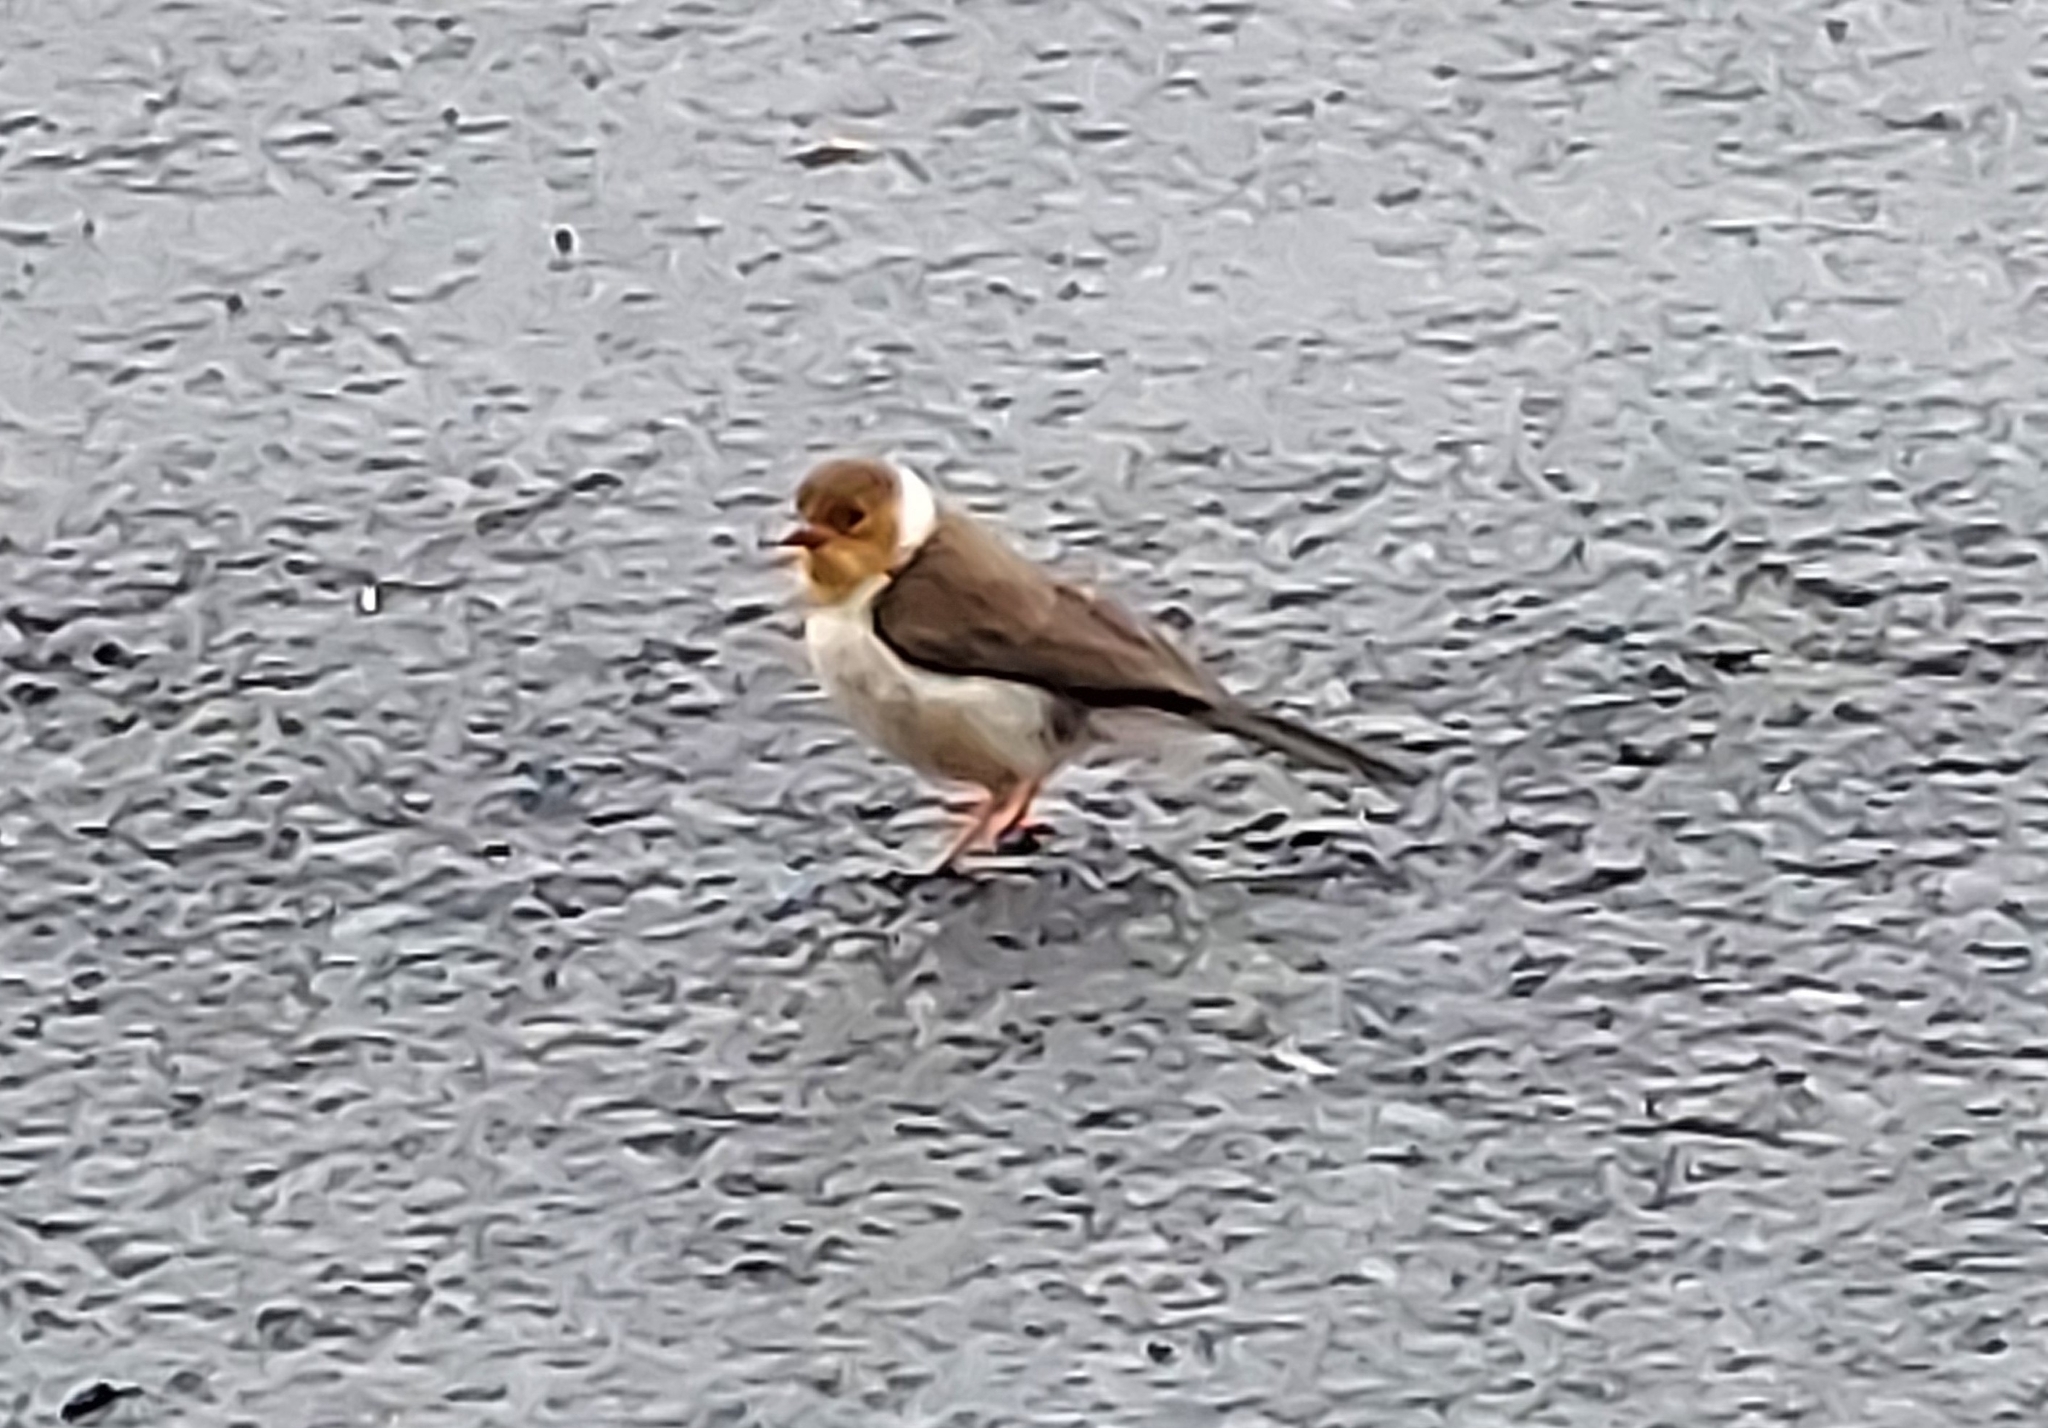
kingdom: Animalia
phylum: Chordata
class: Aves
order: Passeriformes
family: Thraupidae
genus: Paroaria
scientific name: Paroaria capitata
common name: Yellow-billed cardinal
